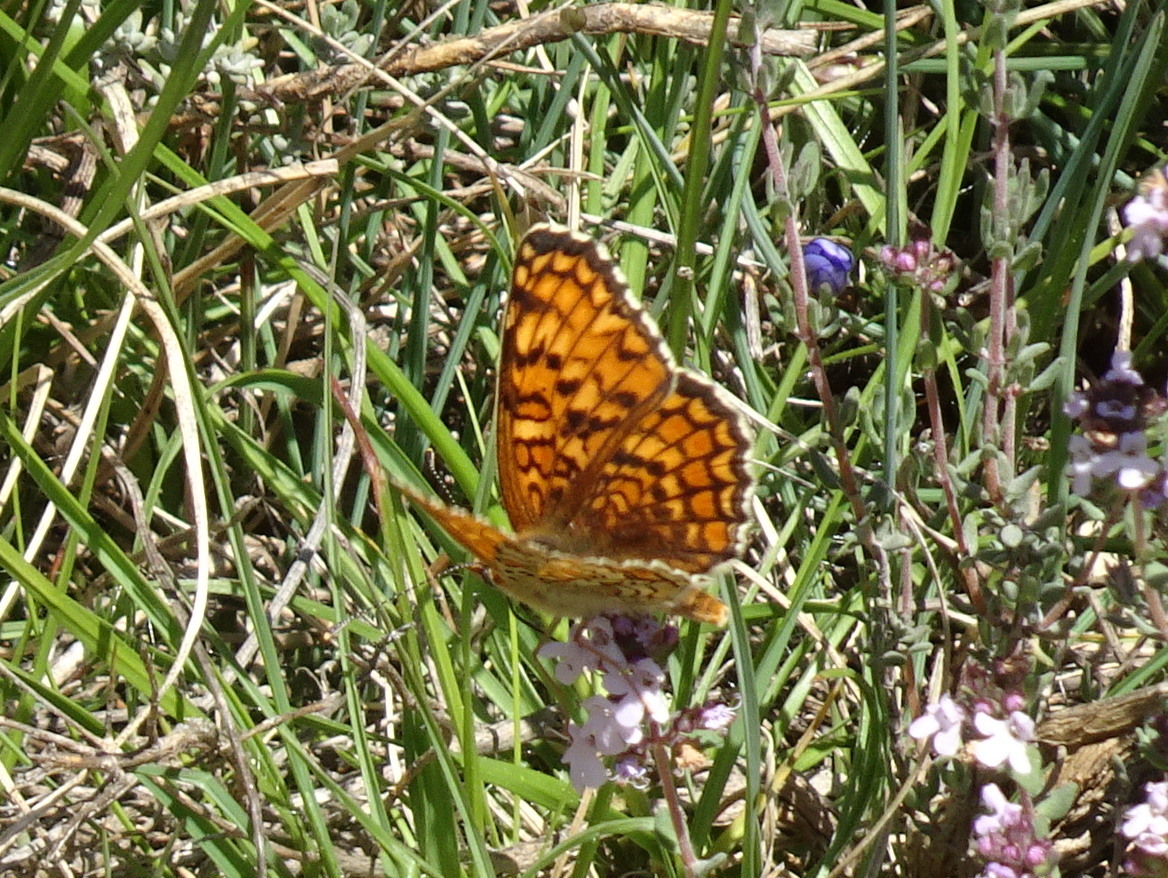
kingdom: Animalia
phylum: Arthropoda
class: Insecta
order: Lepidoptera
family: Nymphalidae
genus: Melitaea
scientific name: Melitaea phoebe
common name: Knapweed fritillary
